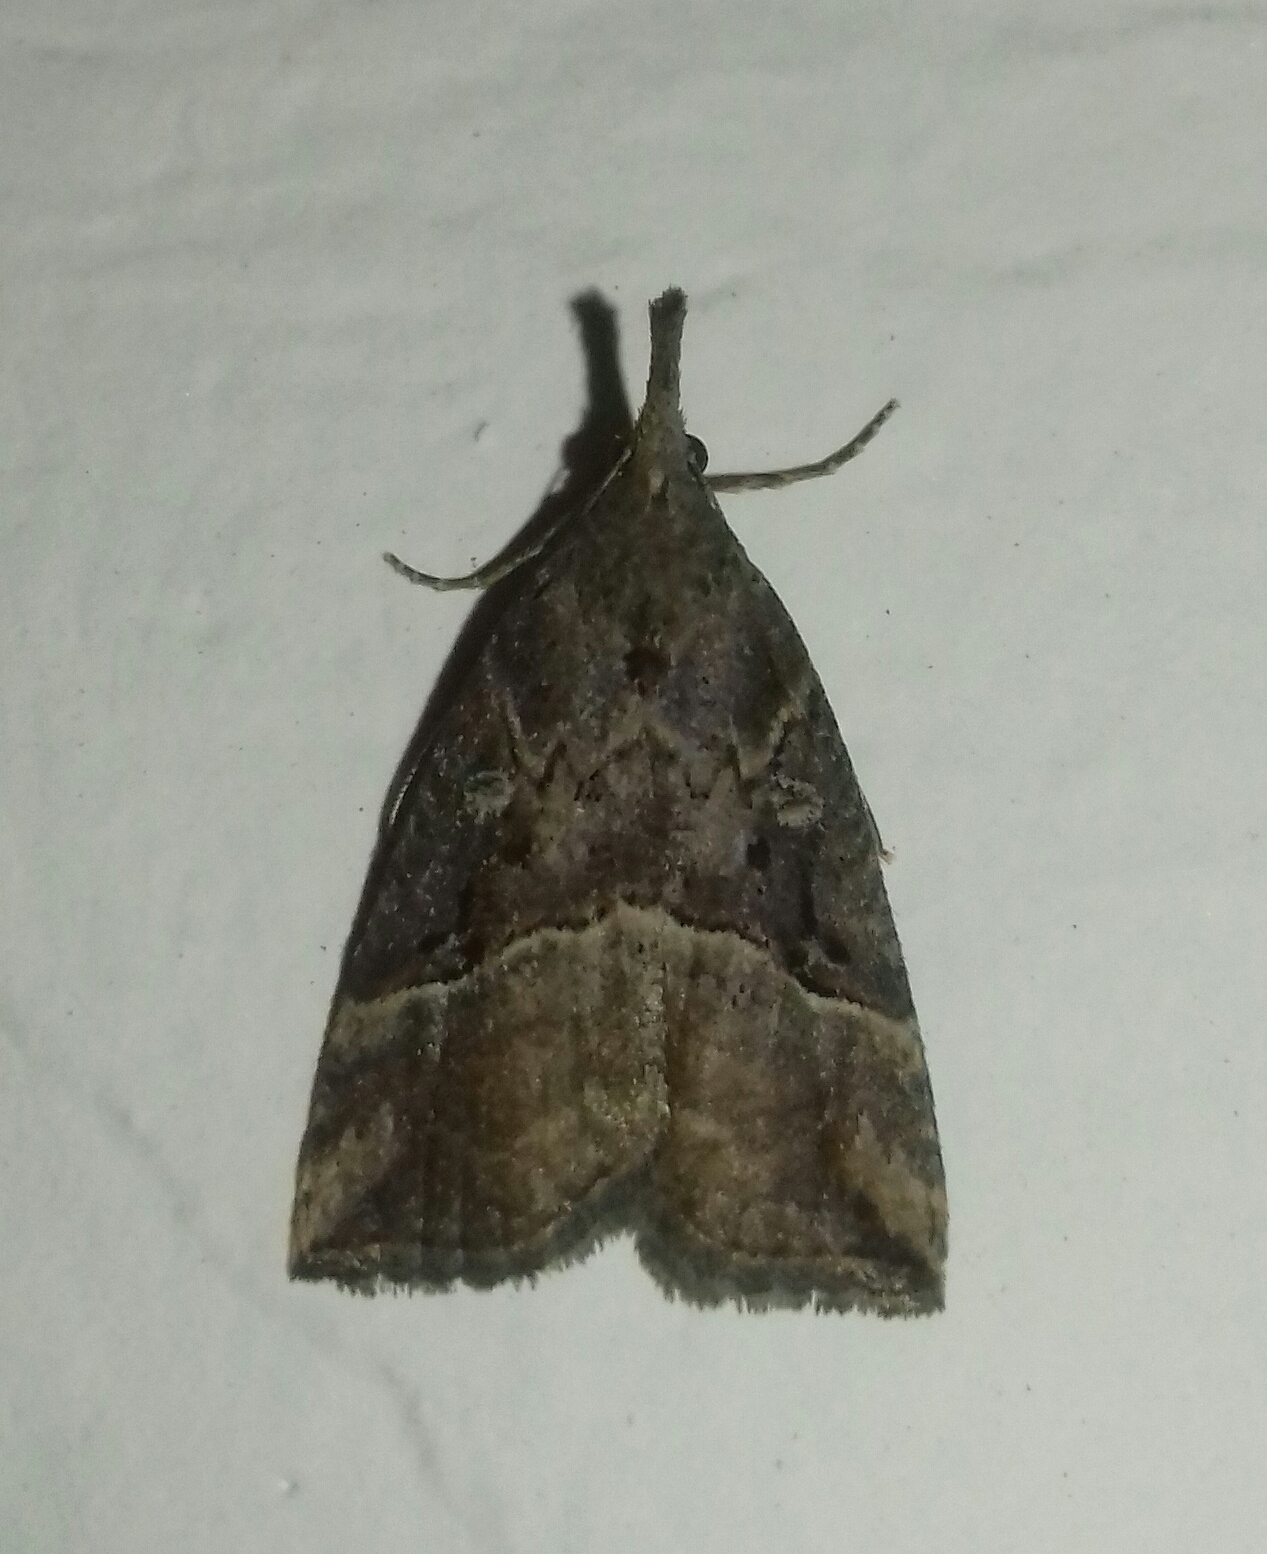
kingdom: Animalia
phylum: Arthropoda
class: Insecta
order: Lepidoptera
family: Erebidae
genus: Hypena
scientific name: Hypena rostralis
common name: Buttoned snout
